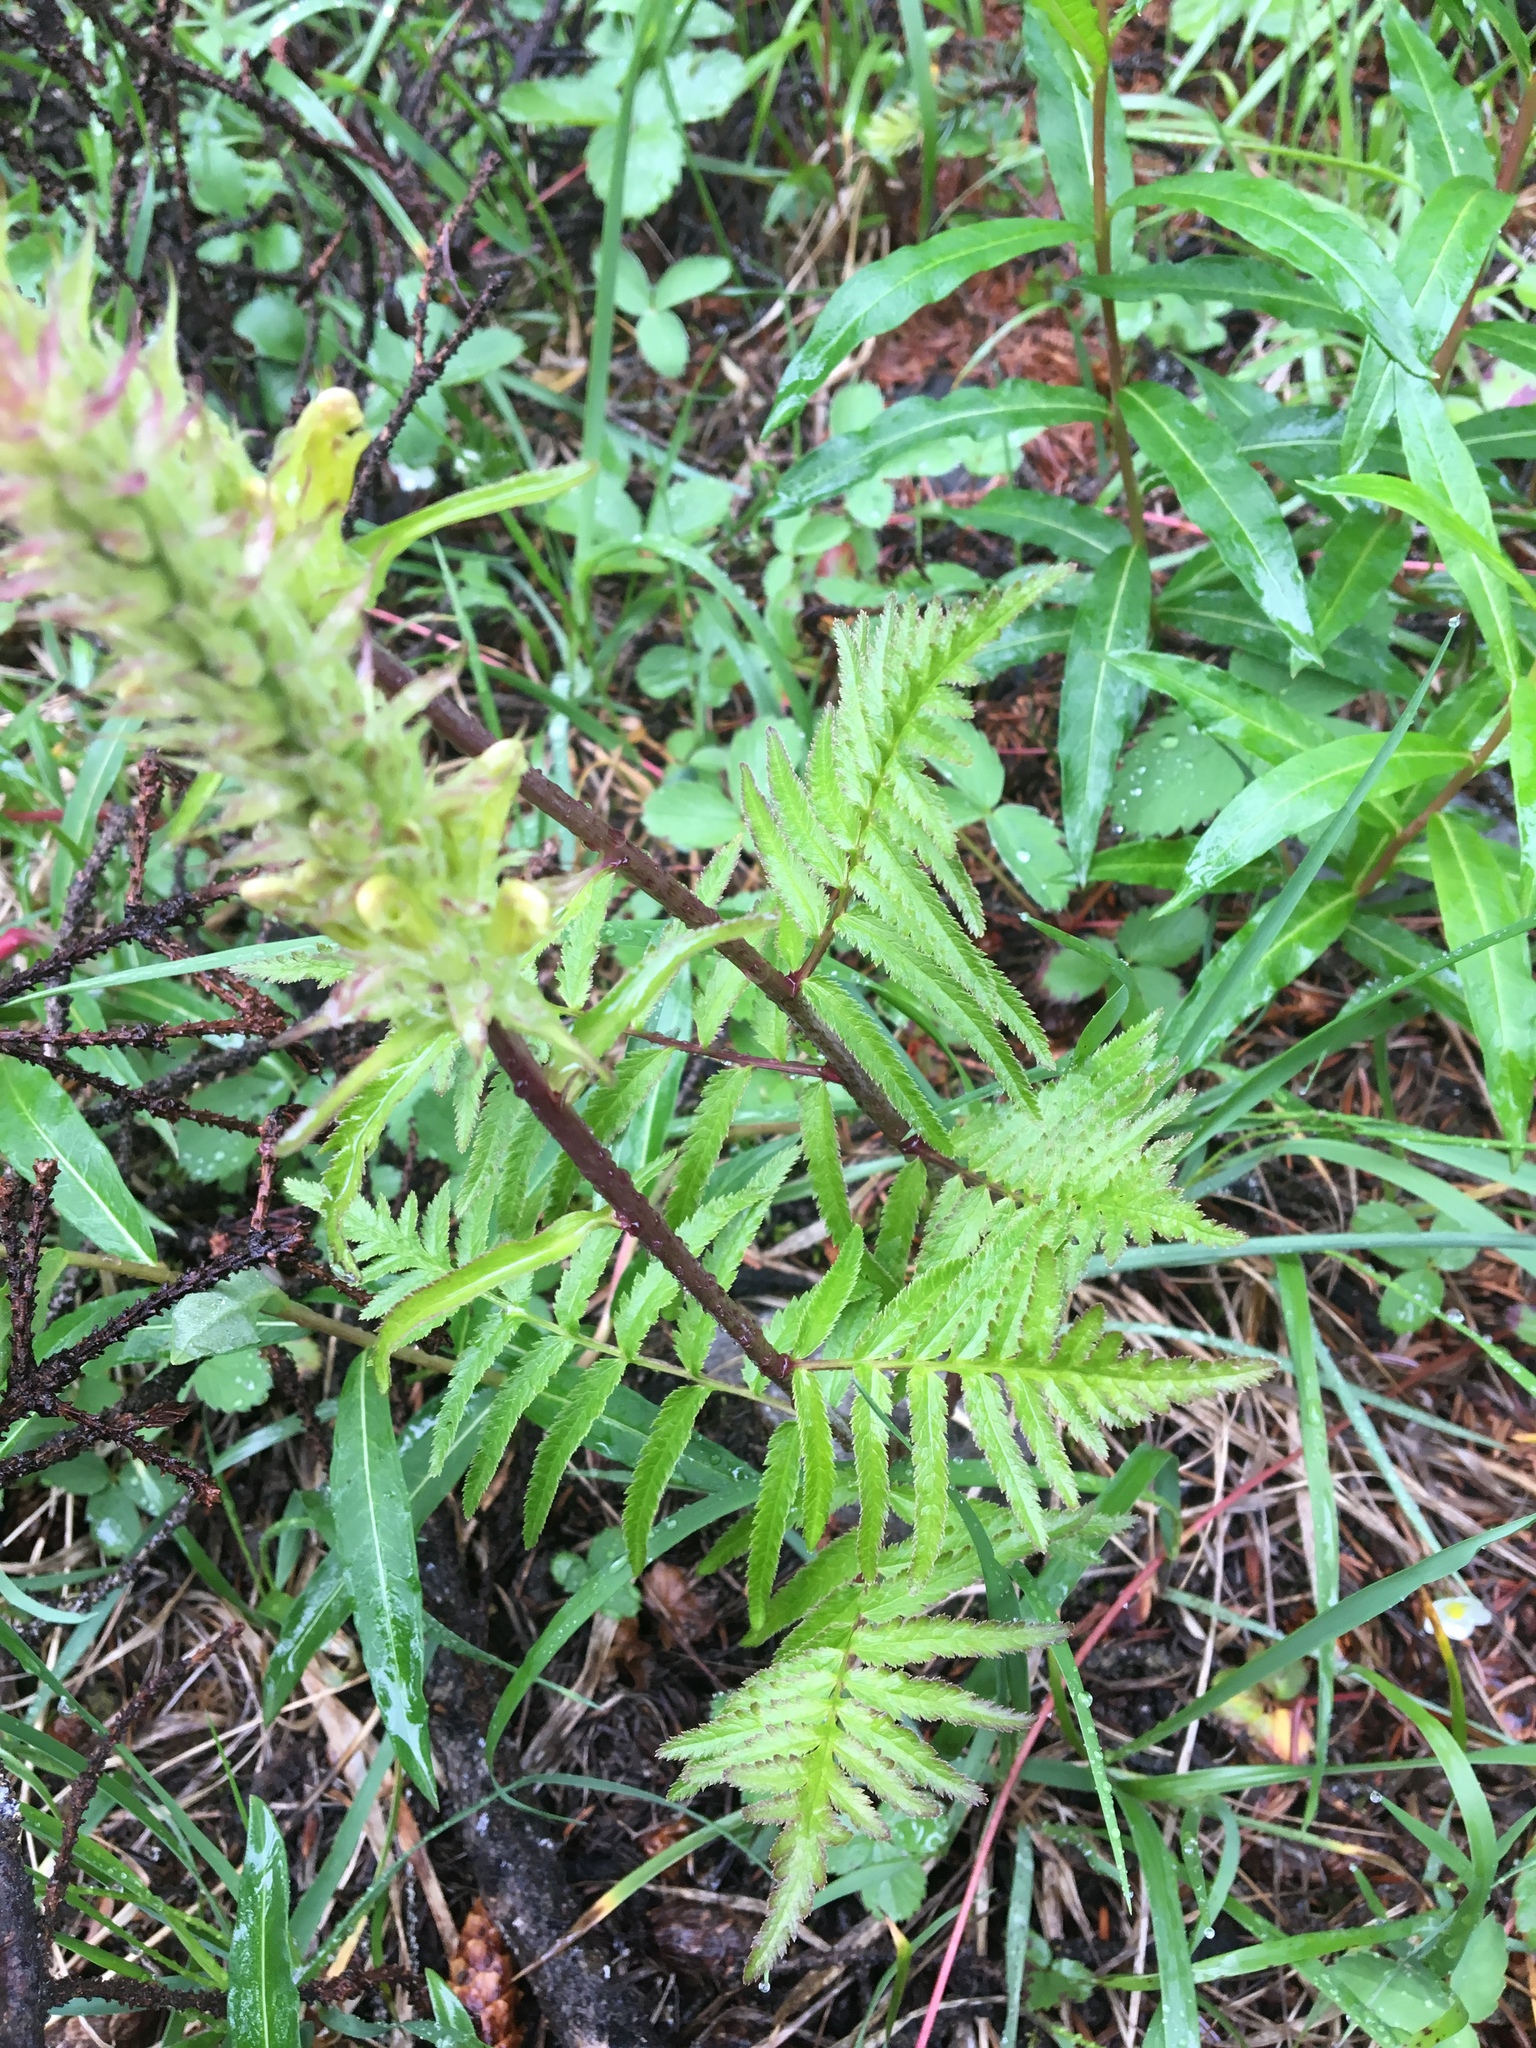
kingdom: Plantae
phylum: Tracheophyta
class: Magnoliopsida
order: Lamiales
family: Orobanchaceae
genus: Pedicularis
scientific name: Pedicularis bracteosa
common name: Bracted lousewort
